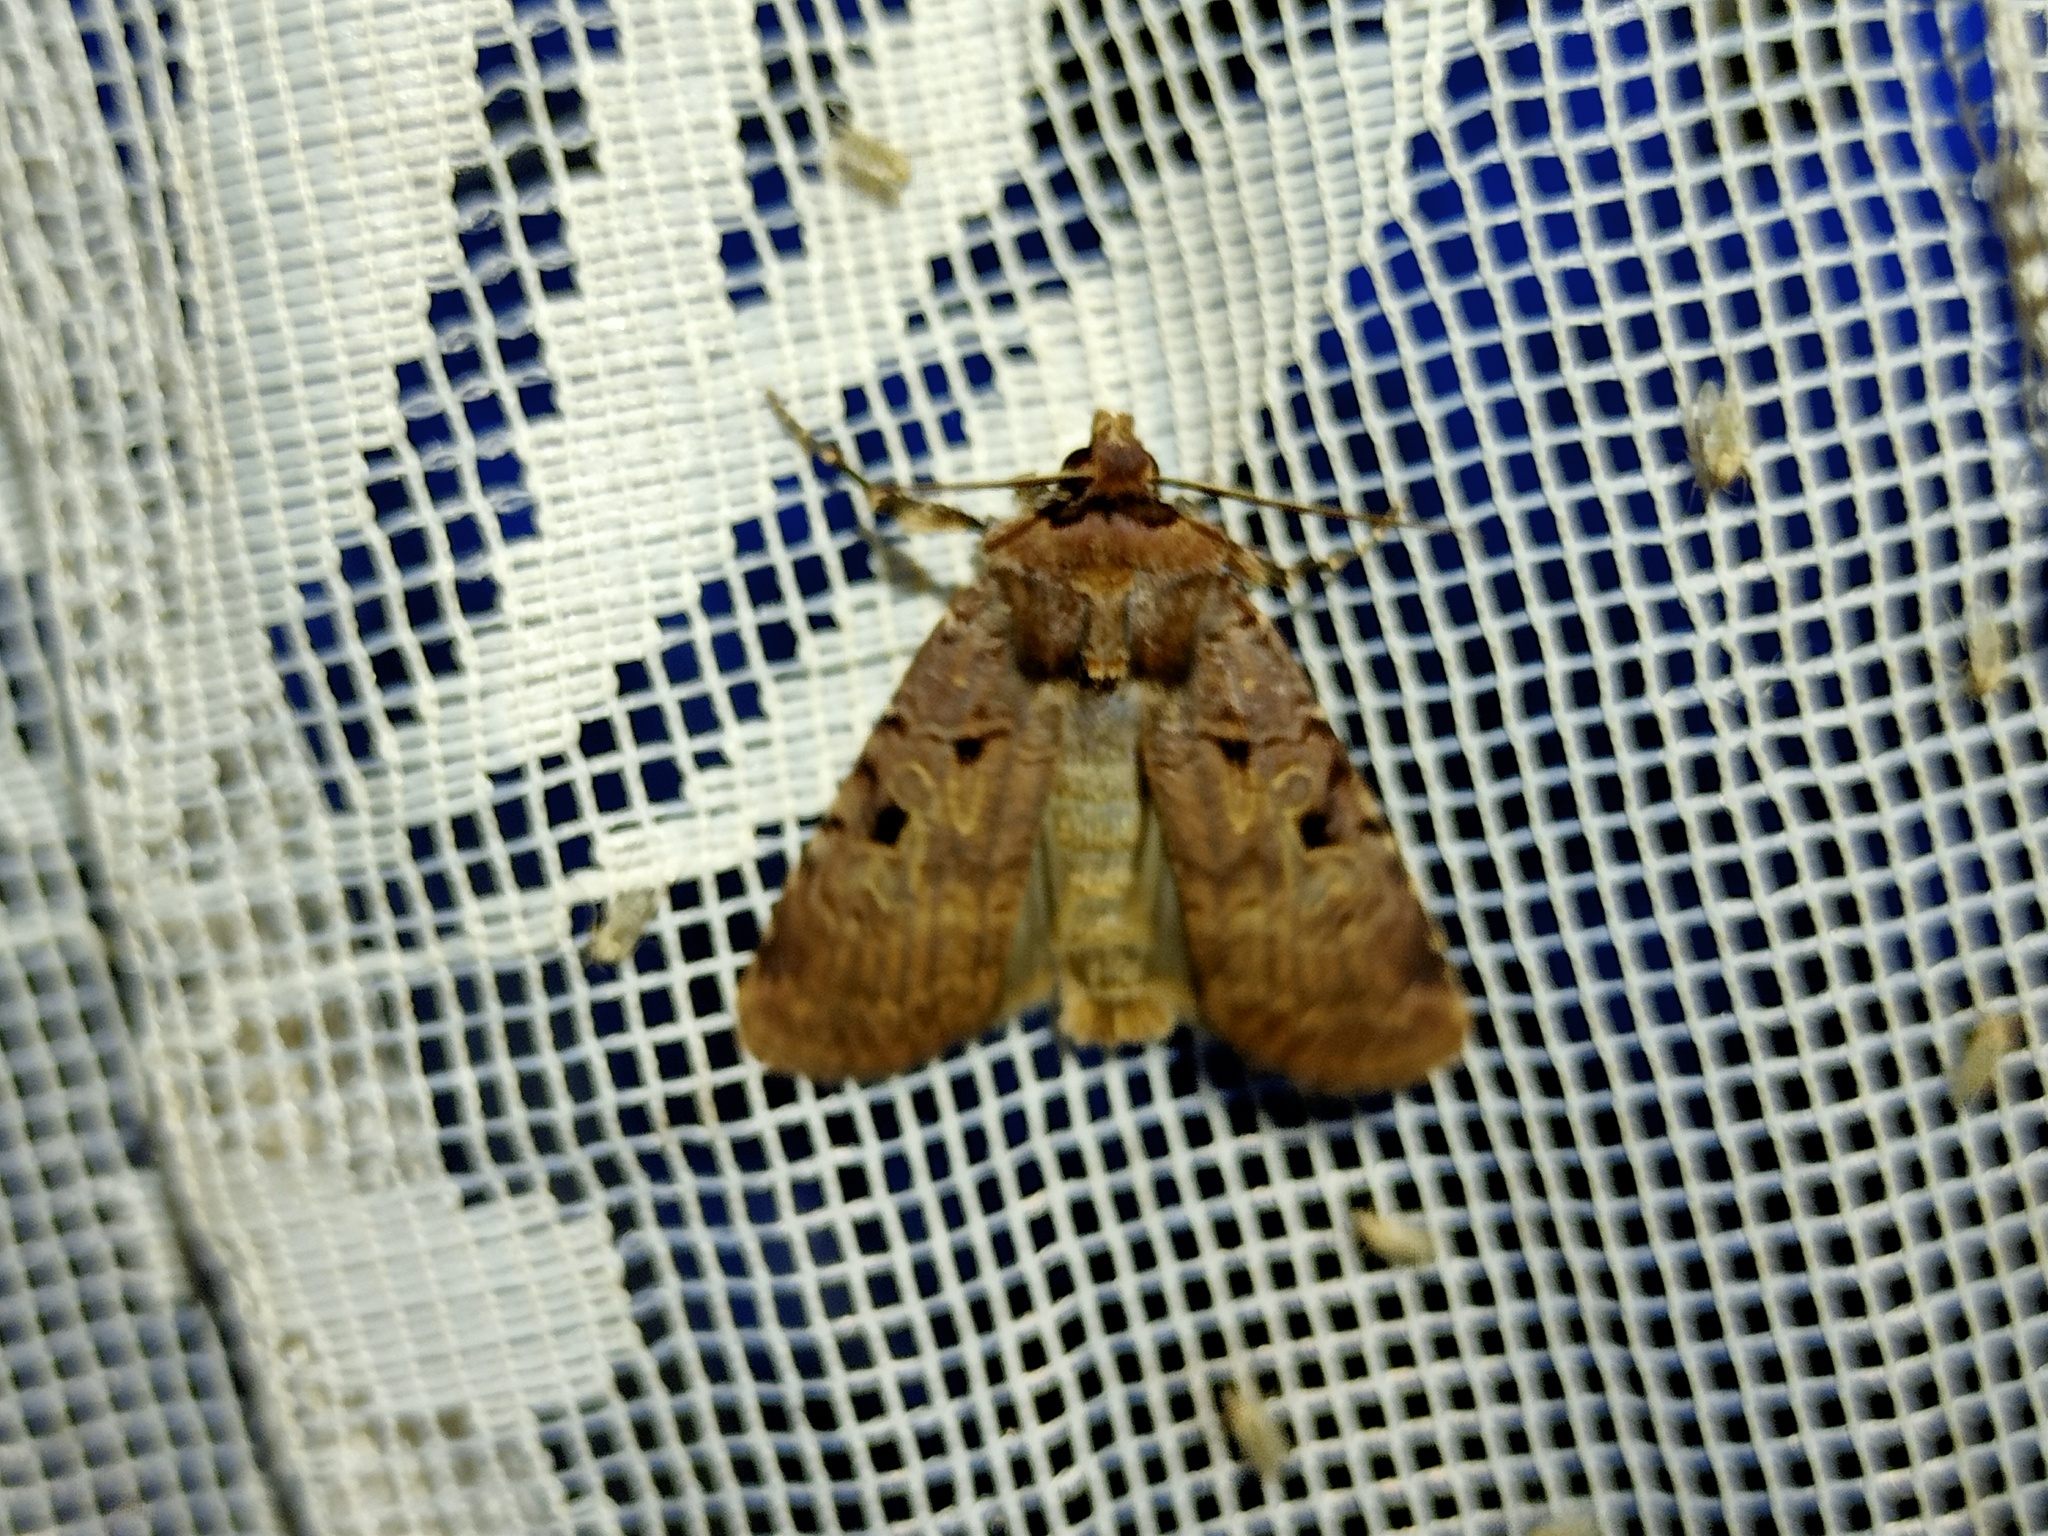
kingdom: Animalia
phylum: Arthropoda
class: Insecta
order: Lepidoptera
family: Noctuidae
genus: Chersotis
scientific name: Chersotis rectangula
